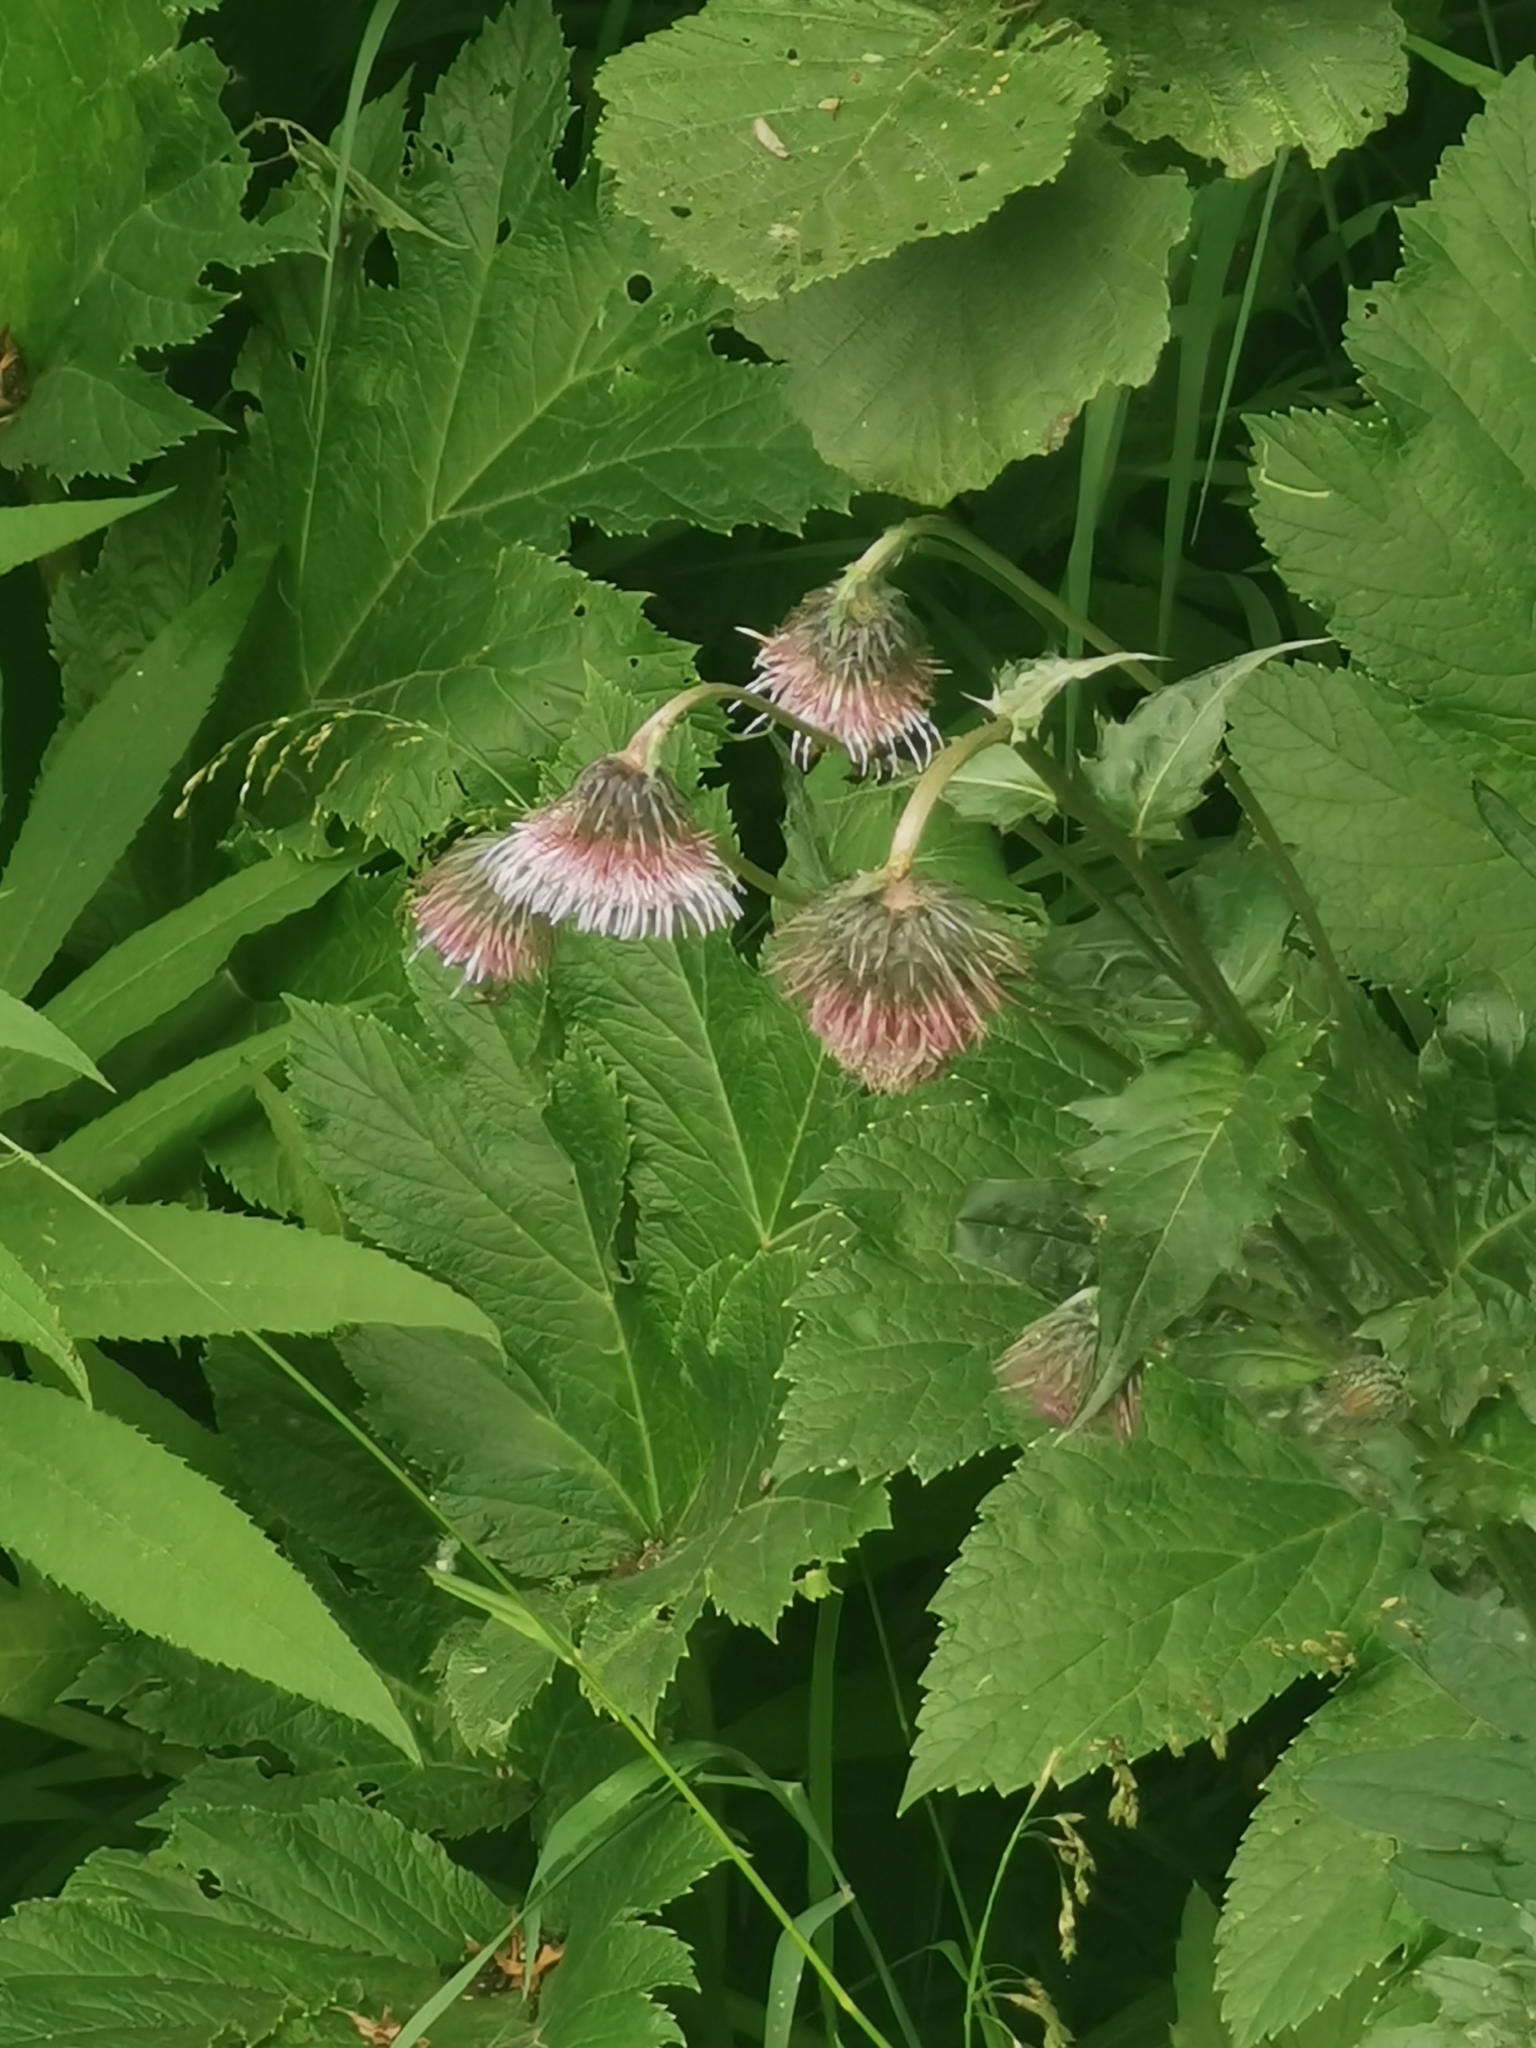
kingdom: Plantae
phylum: Tracheophyta
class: Magnoliopsida
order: Asterales
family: Asteraceae
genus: Cirsium
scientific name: Cirsium kamtschaticum
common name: Kamchatka thistle
